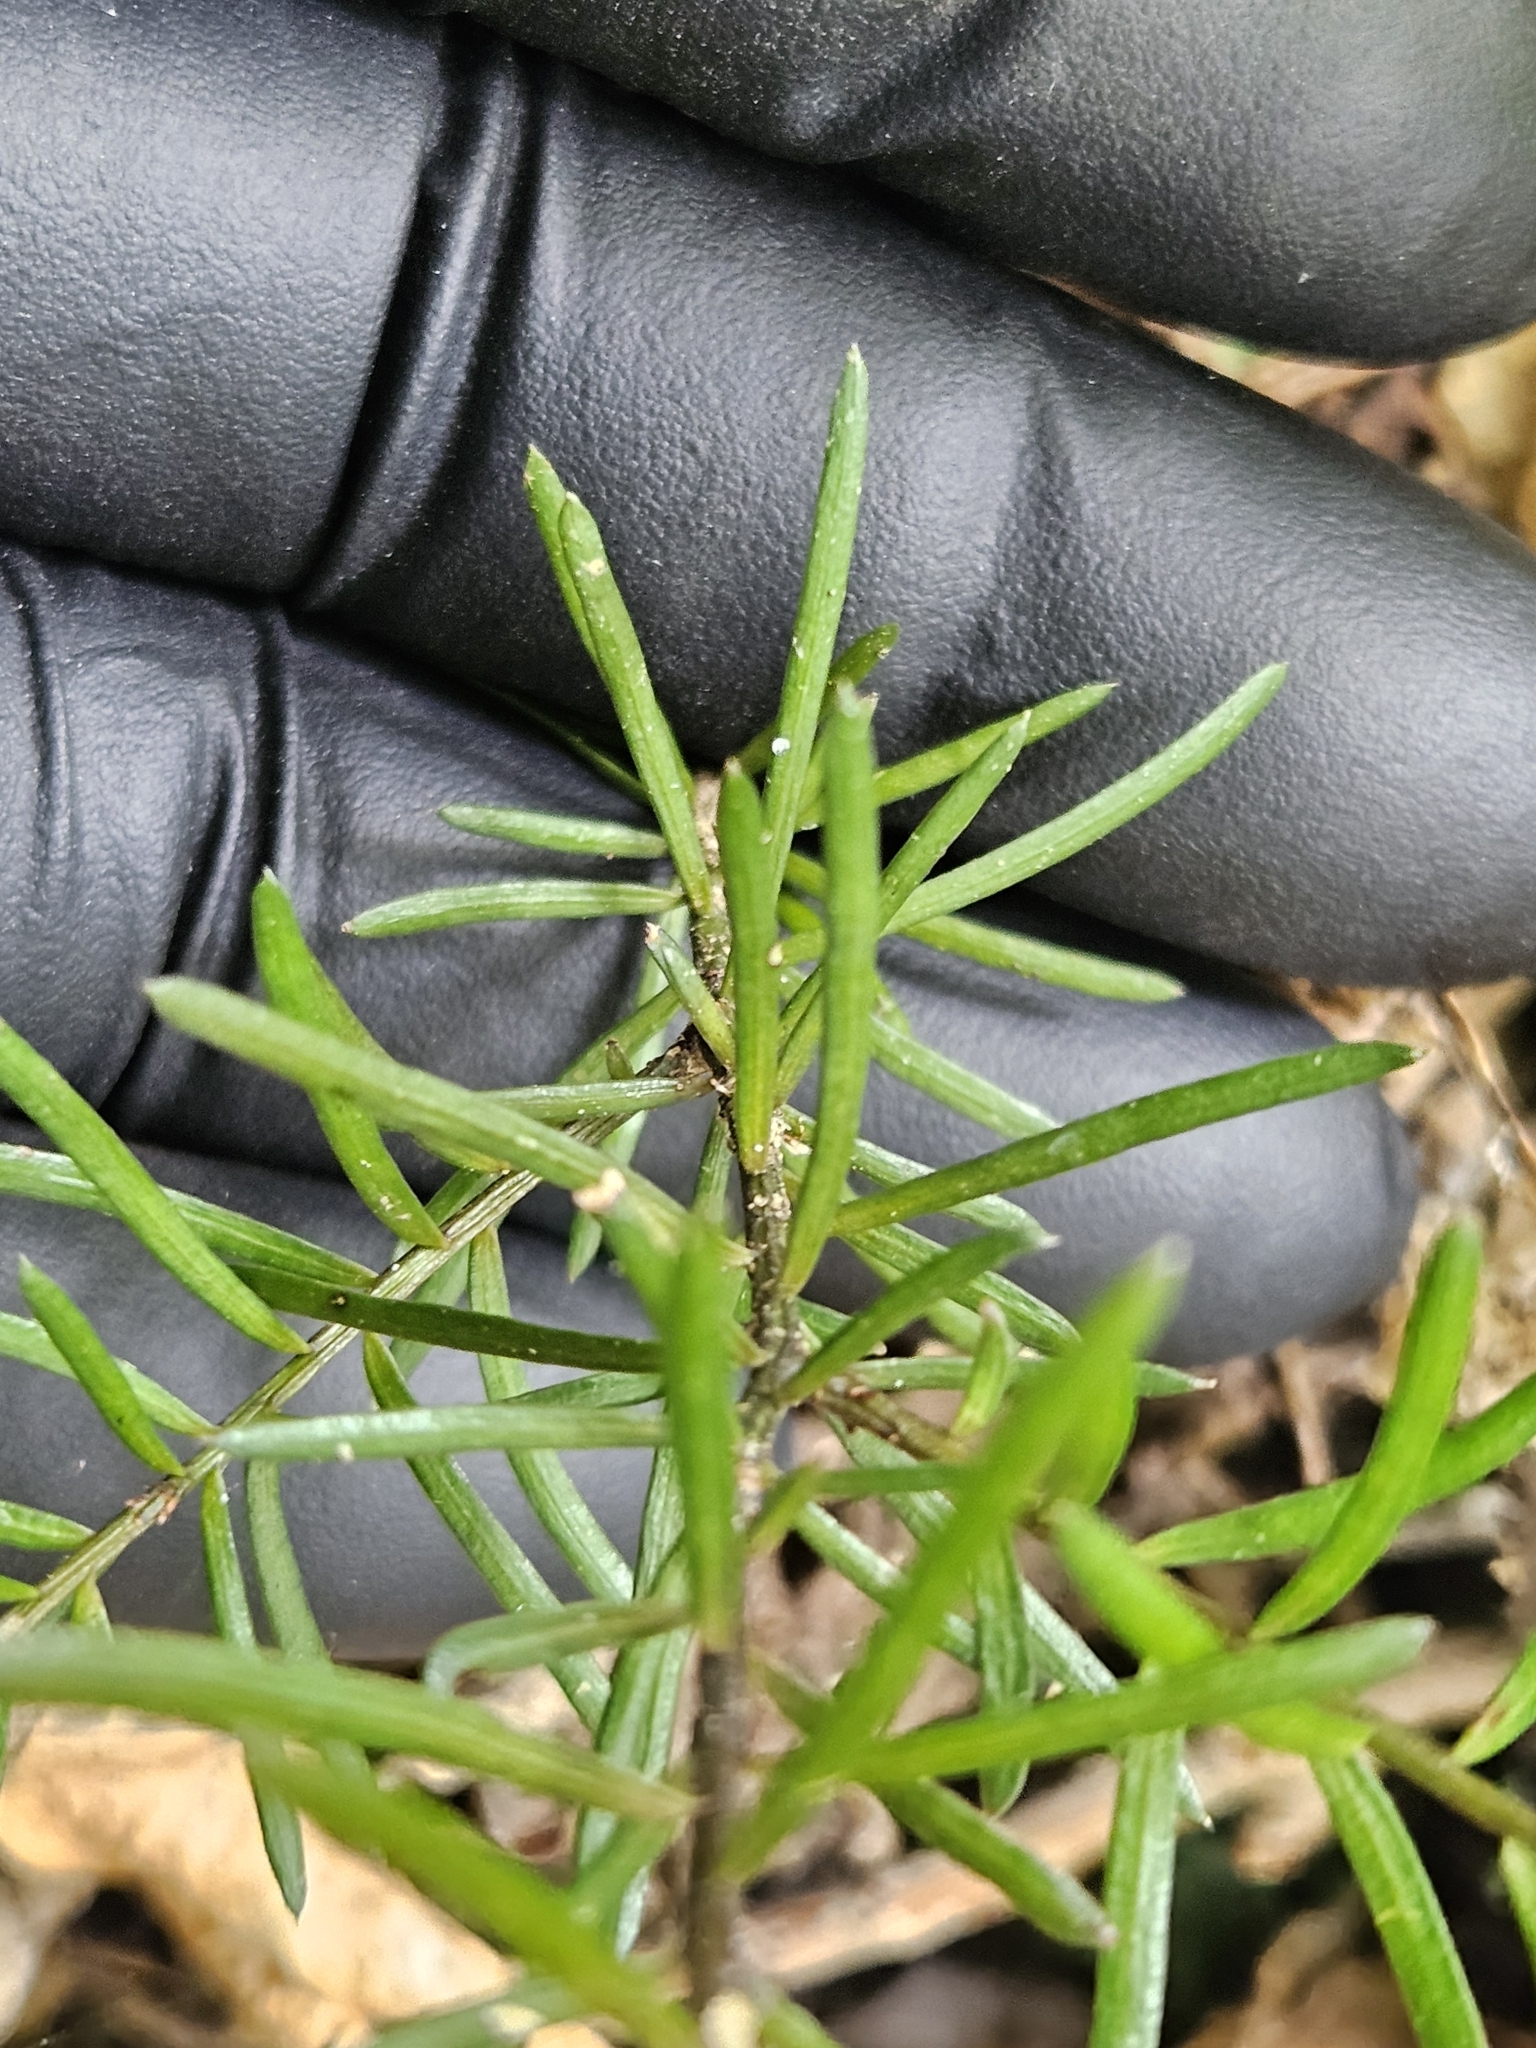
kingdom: Plantae
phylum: Tracheophyta
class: Pinopsida
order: Pinales
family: Podocarpaceae
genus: Prumnopitys
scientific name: Prumnopitys taxifolia
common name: Matai
